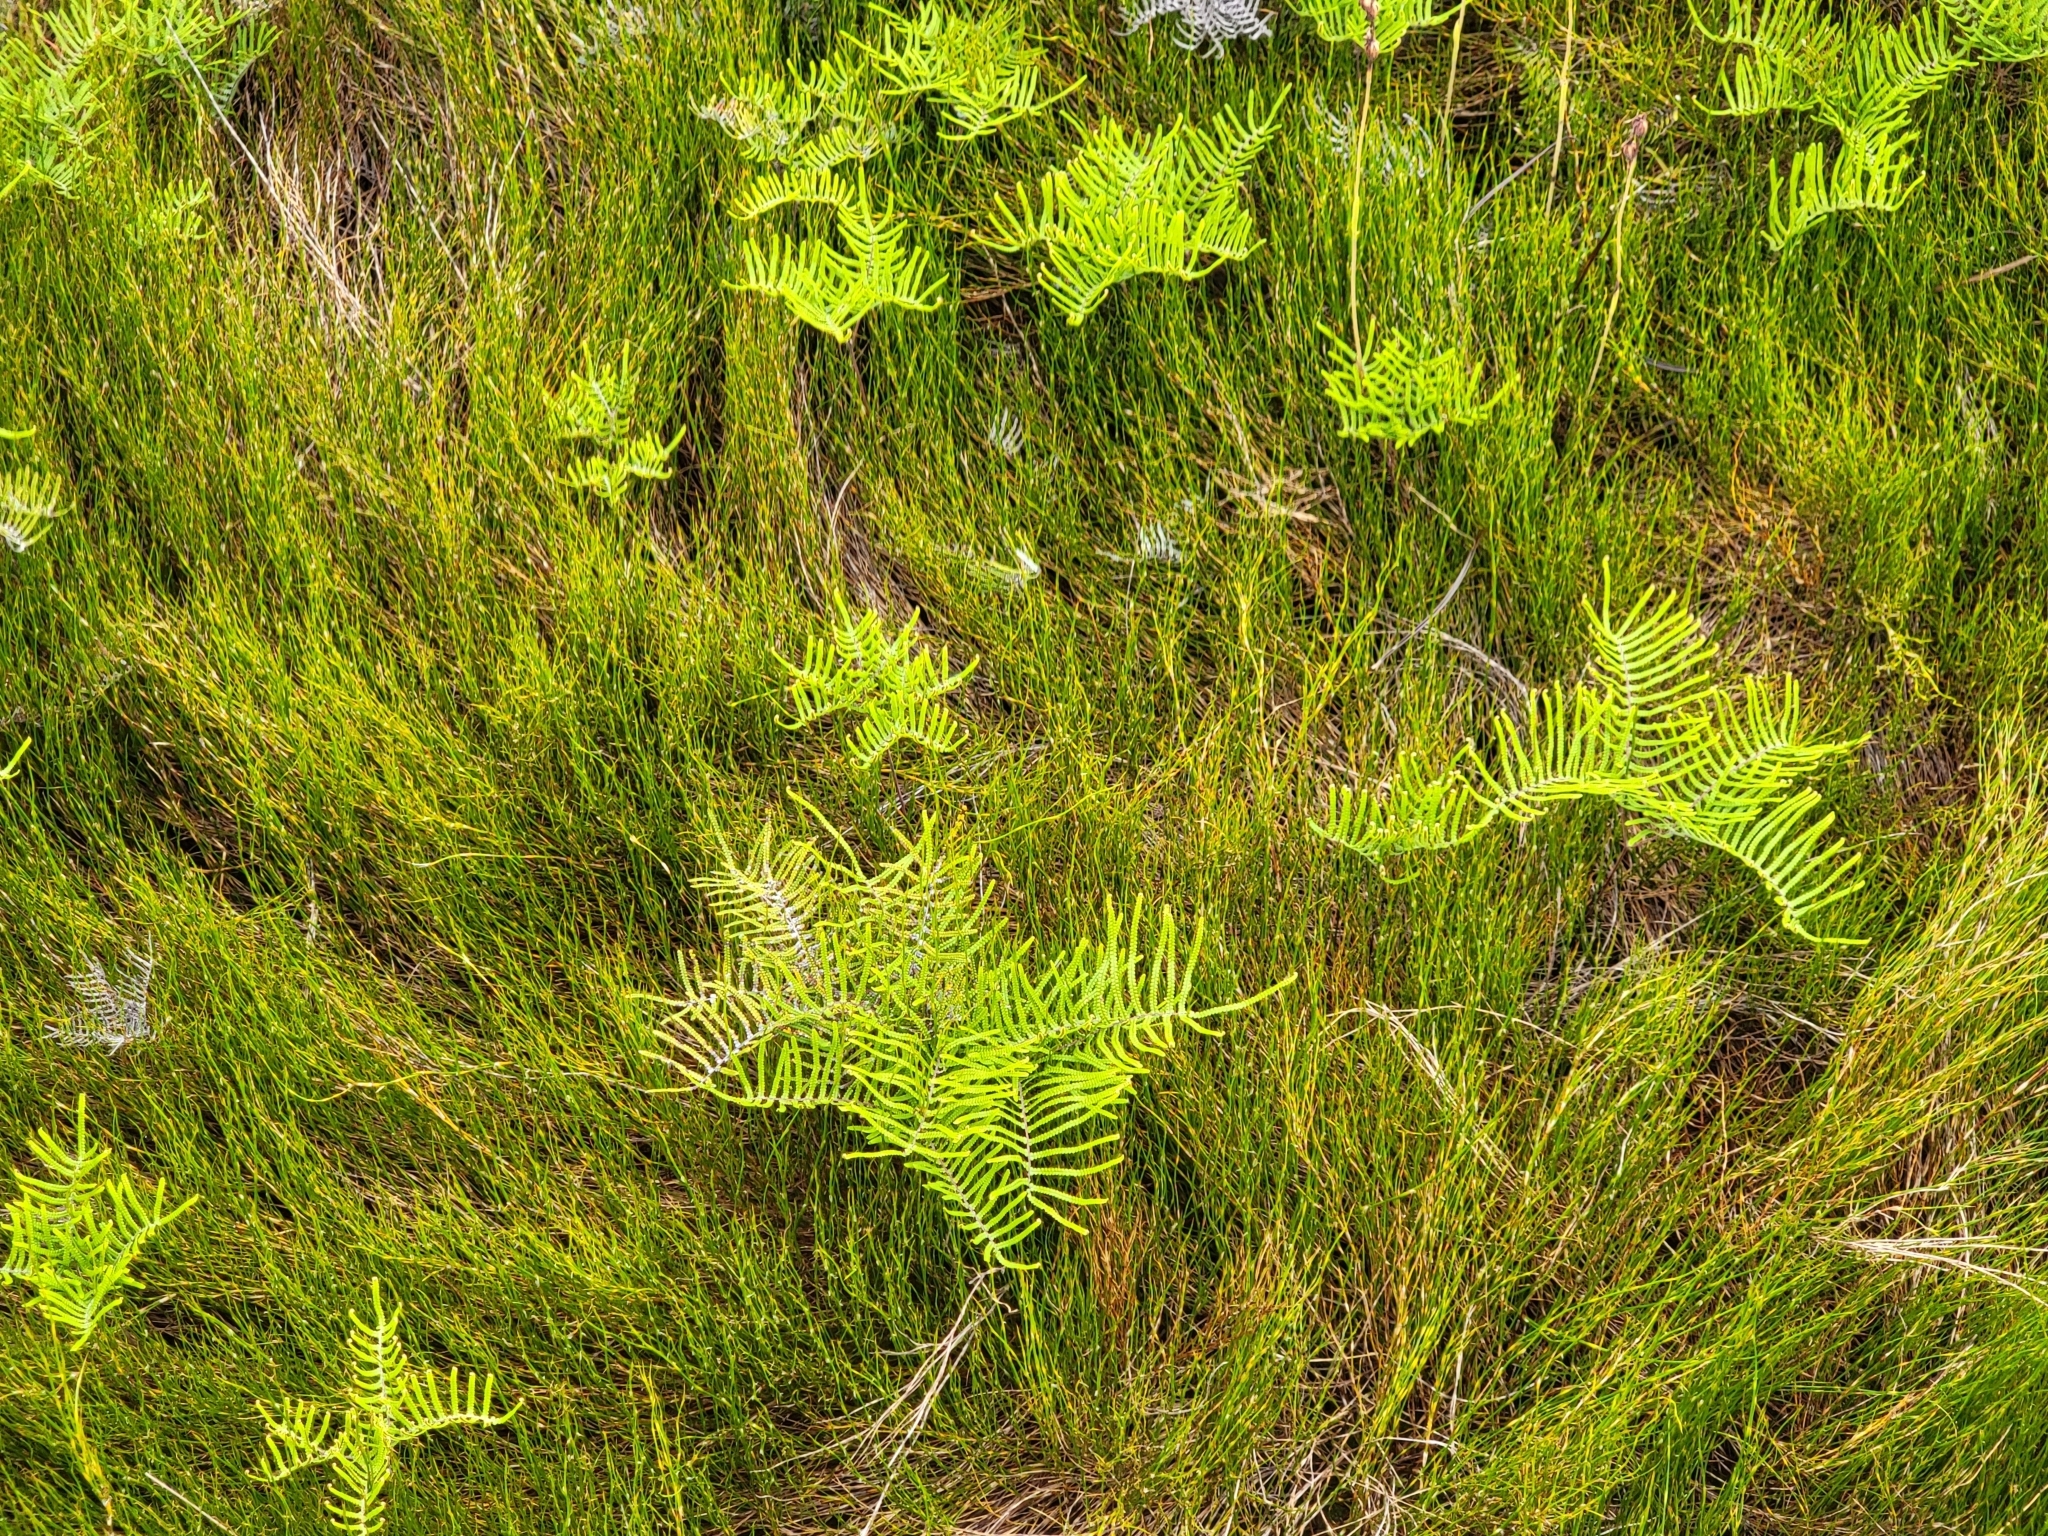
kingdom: Plantae
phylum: Tracheophyta
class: Liliopsida
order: Poales
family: Restionaceae
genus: Empodisma
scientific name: Empodisma minus
